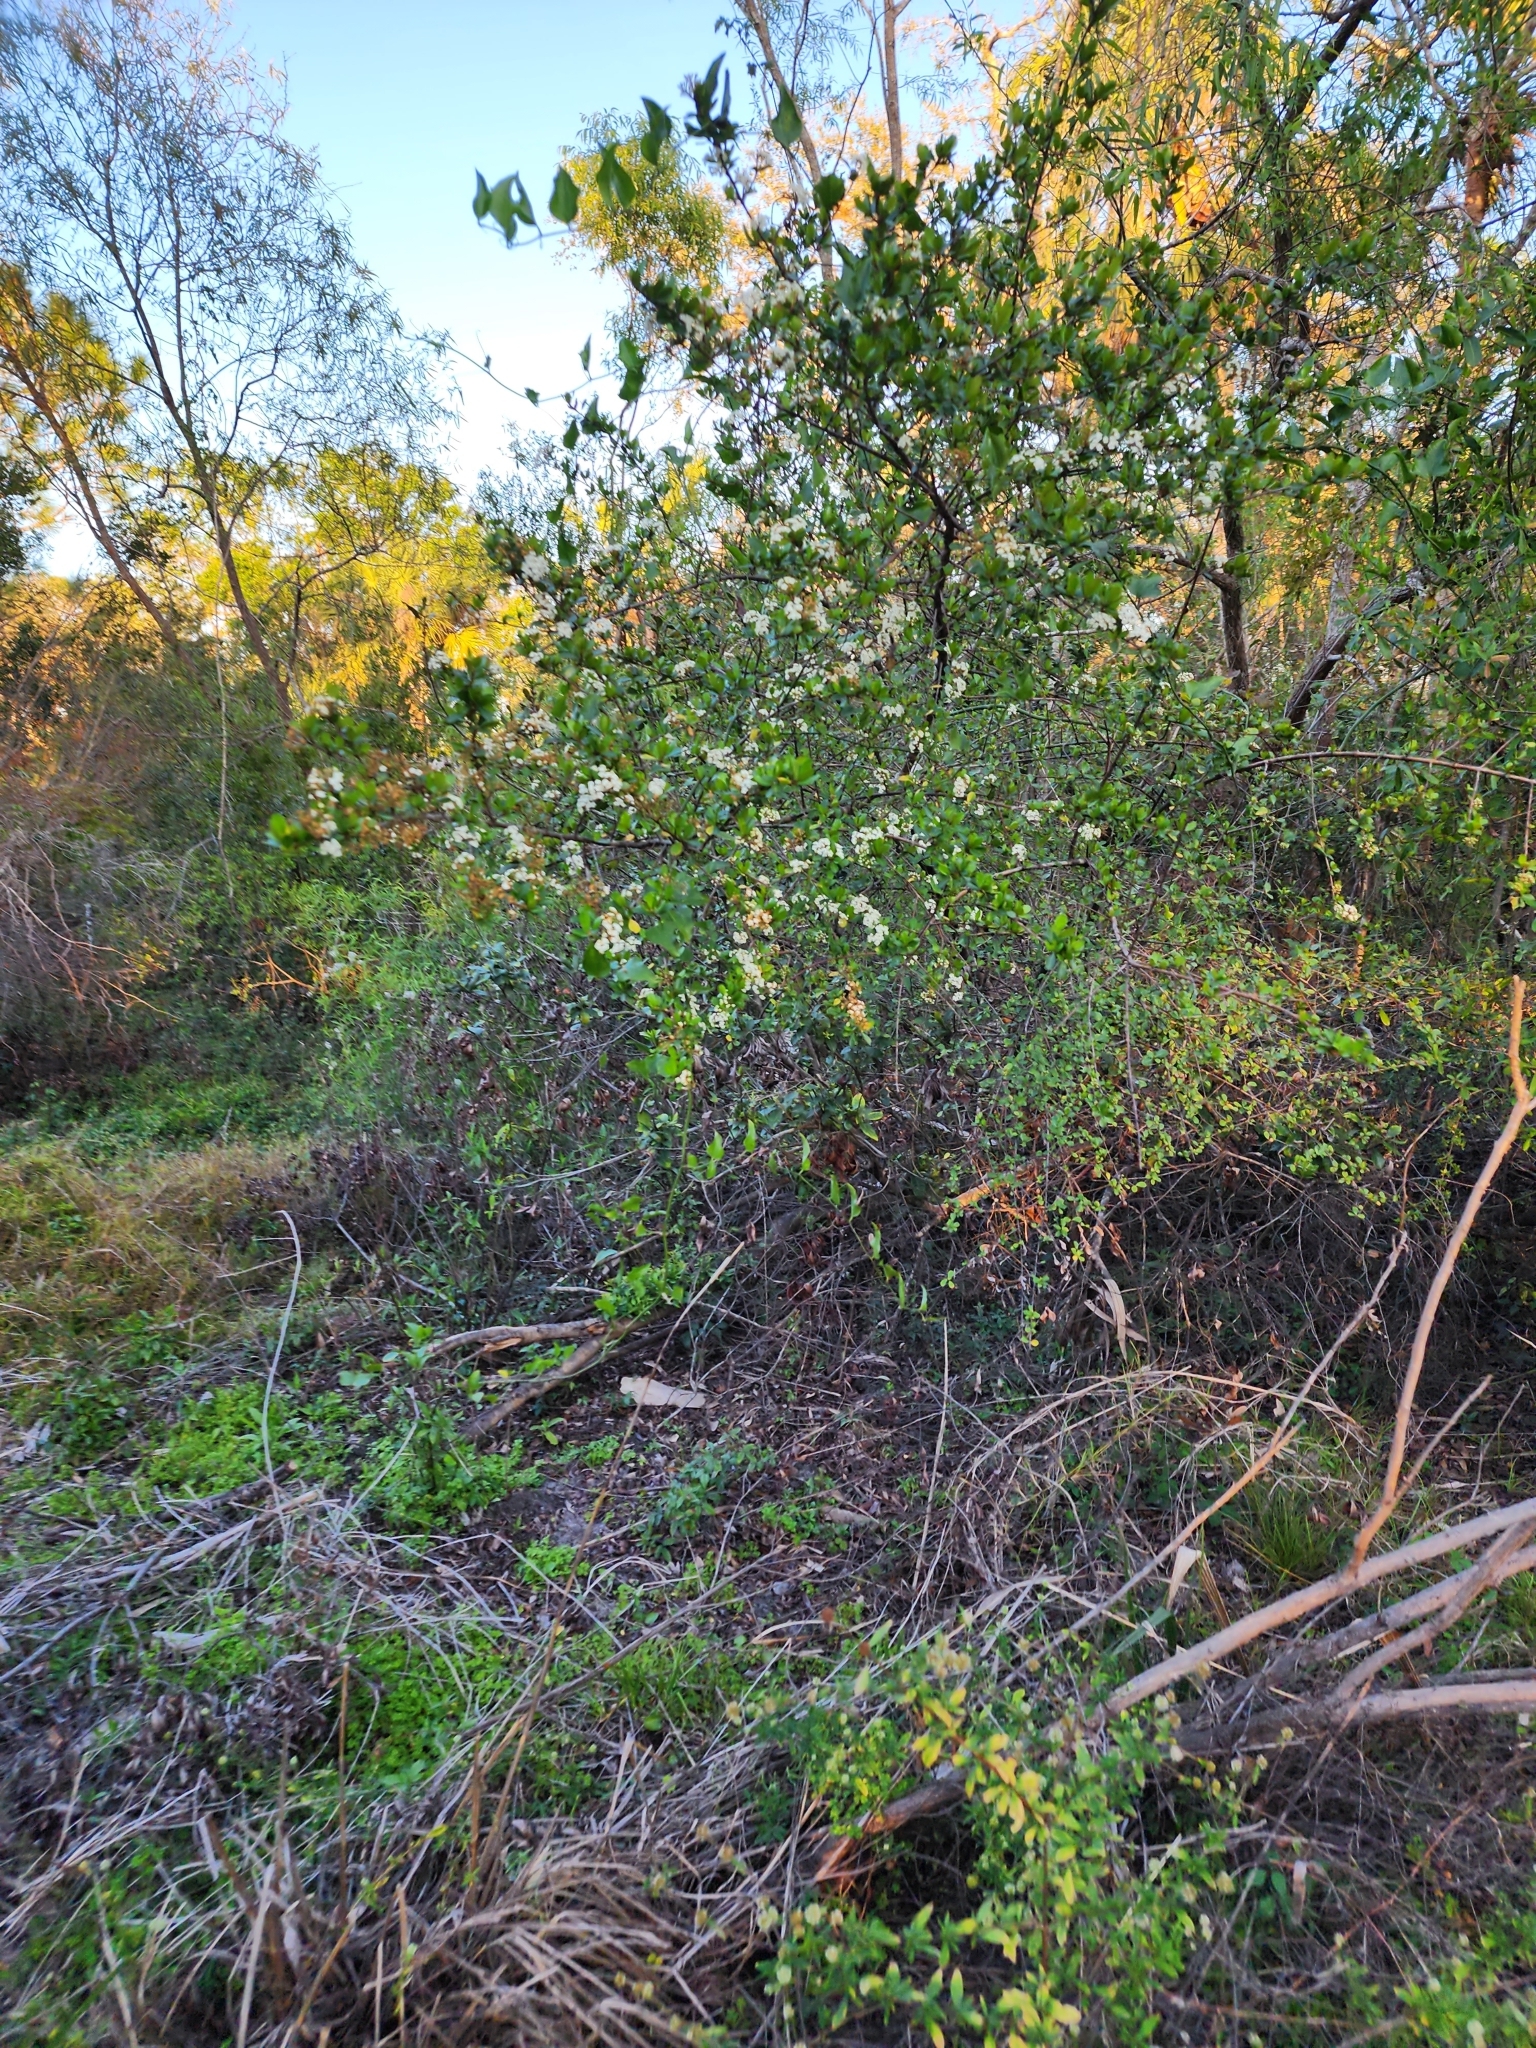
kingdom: Plantae
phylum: Tracheophyta
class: Magnoliopsida
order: Dipsacales
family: Viburnaceae
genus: Viburnum
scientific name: Viburnum obovatum
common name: Walter's viburnum
